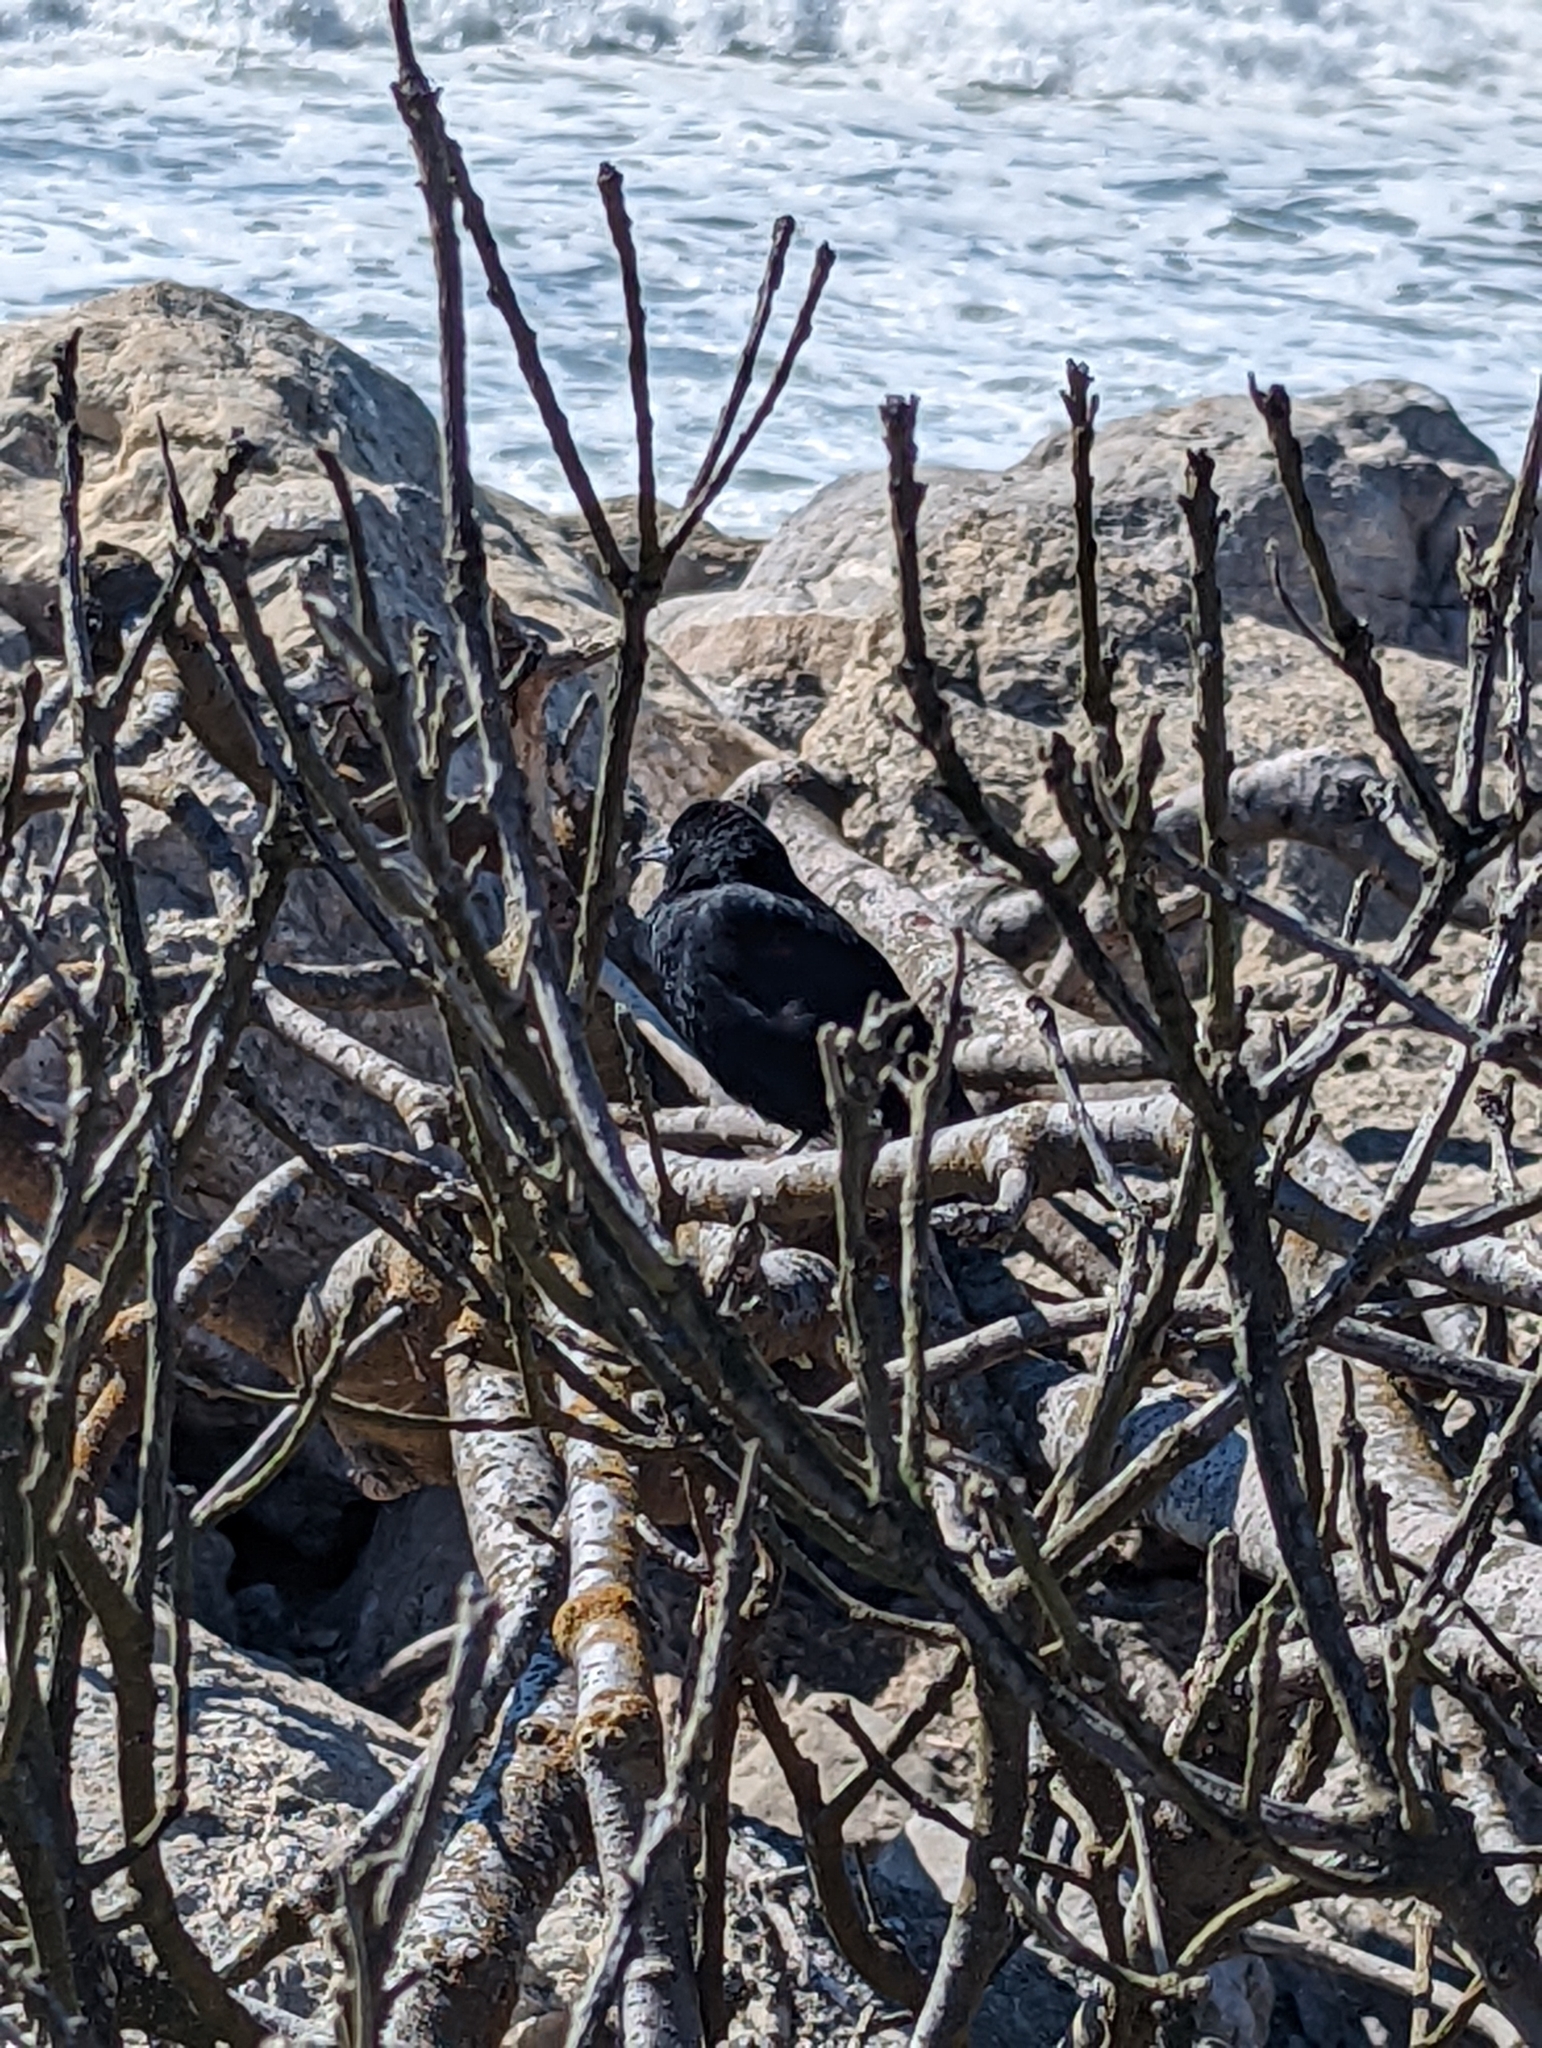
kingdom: Animalia
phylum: Chordata
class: Aves
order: Passeriformes
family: Icteridae
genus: Agelaius
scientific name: Agelaius phoeniceus
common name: Red-winged blackbird
